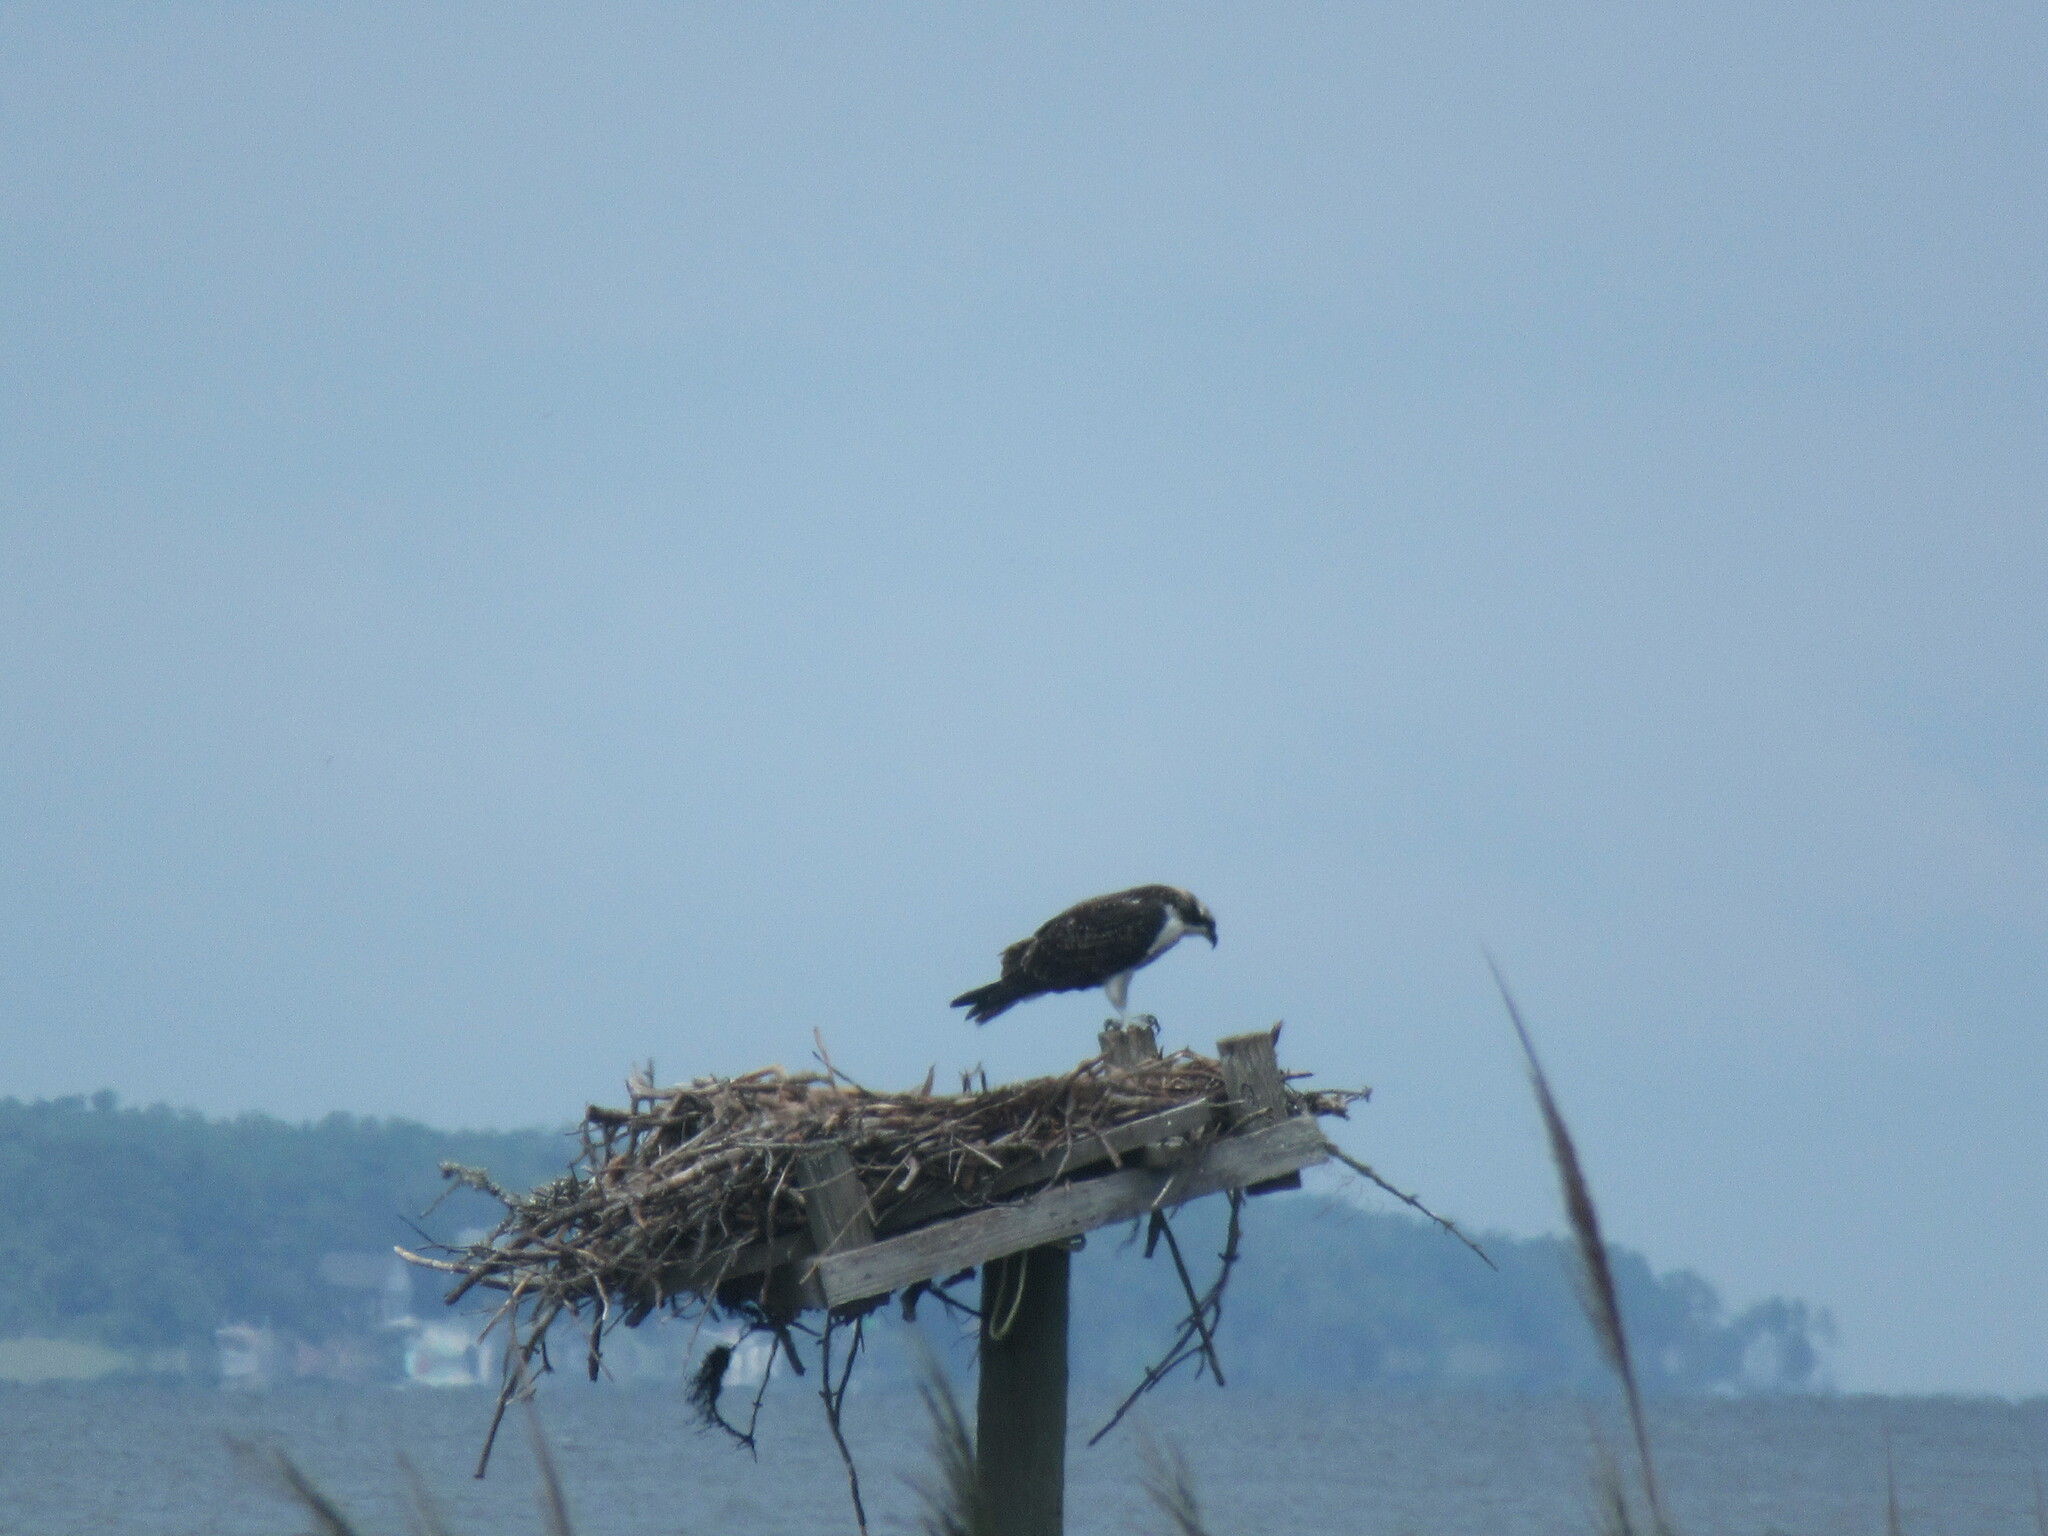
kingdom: Animalia
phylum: Chordata
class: Aves
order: Accipitriformes
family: Pandionidae
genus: Pandion
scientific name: Pandion haliaetus
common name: Osprey
